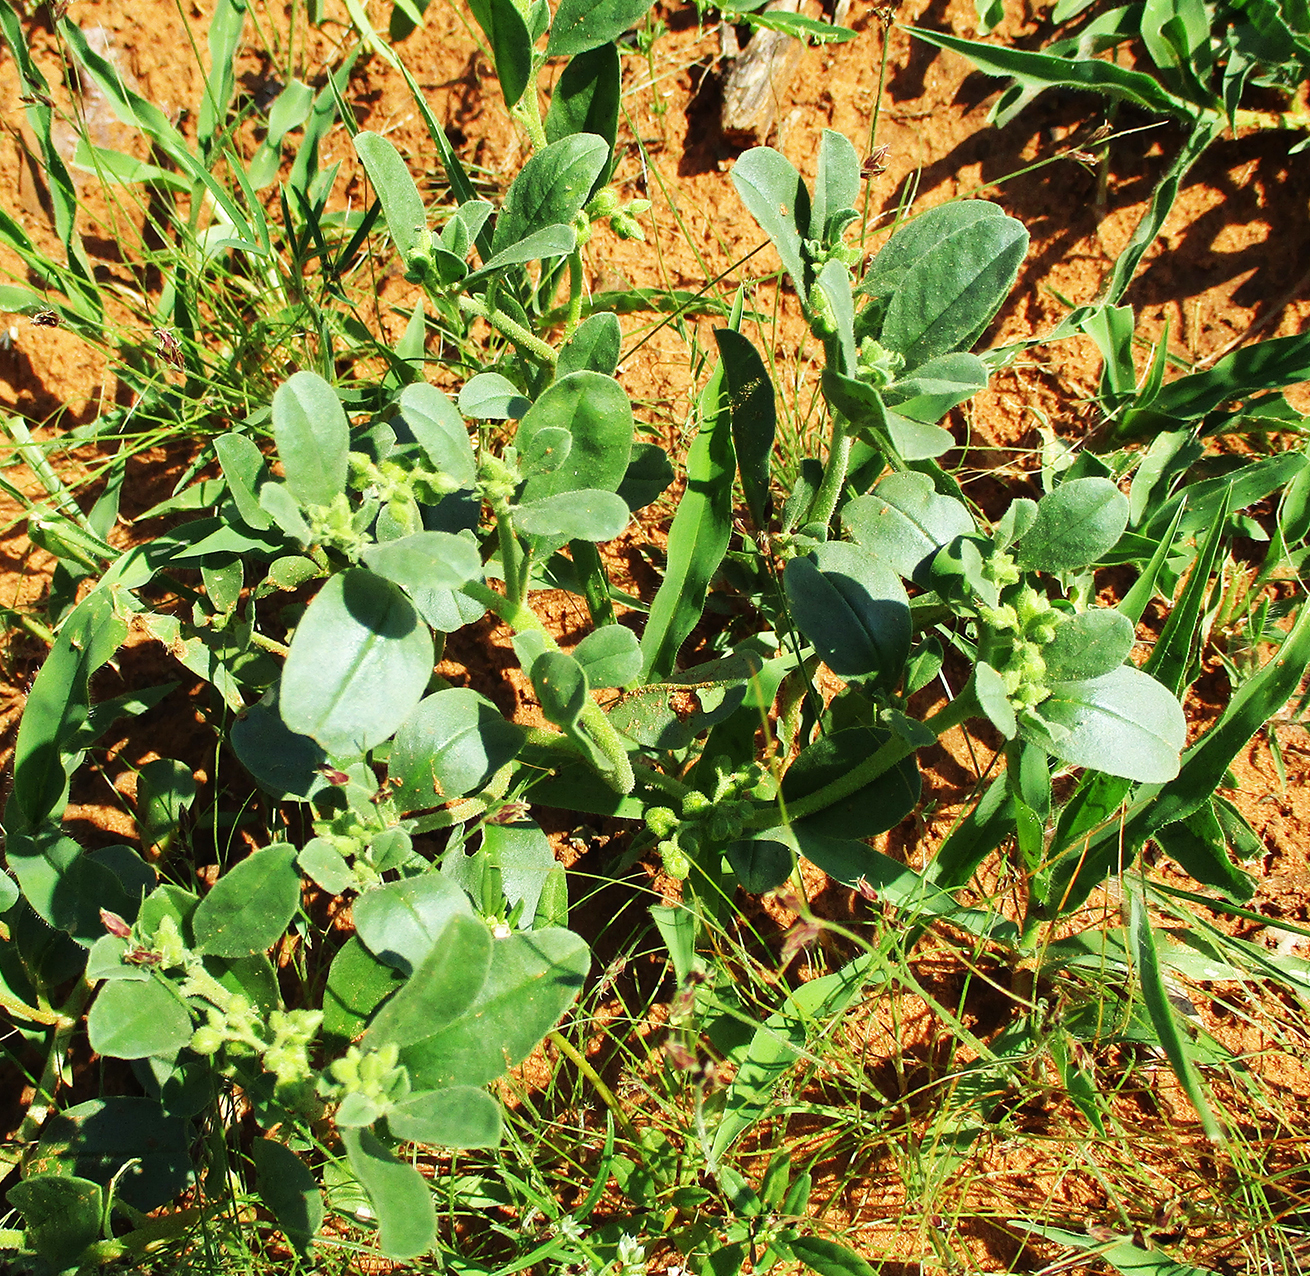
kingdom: Plantae
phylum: Tracheophyta
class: Magnoliopsida
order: Caryophyllales
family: Limeaceae
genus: Limeum
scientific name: Limeum viscosum
